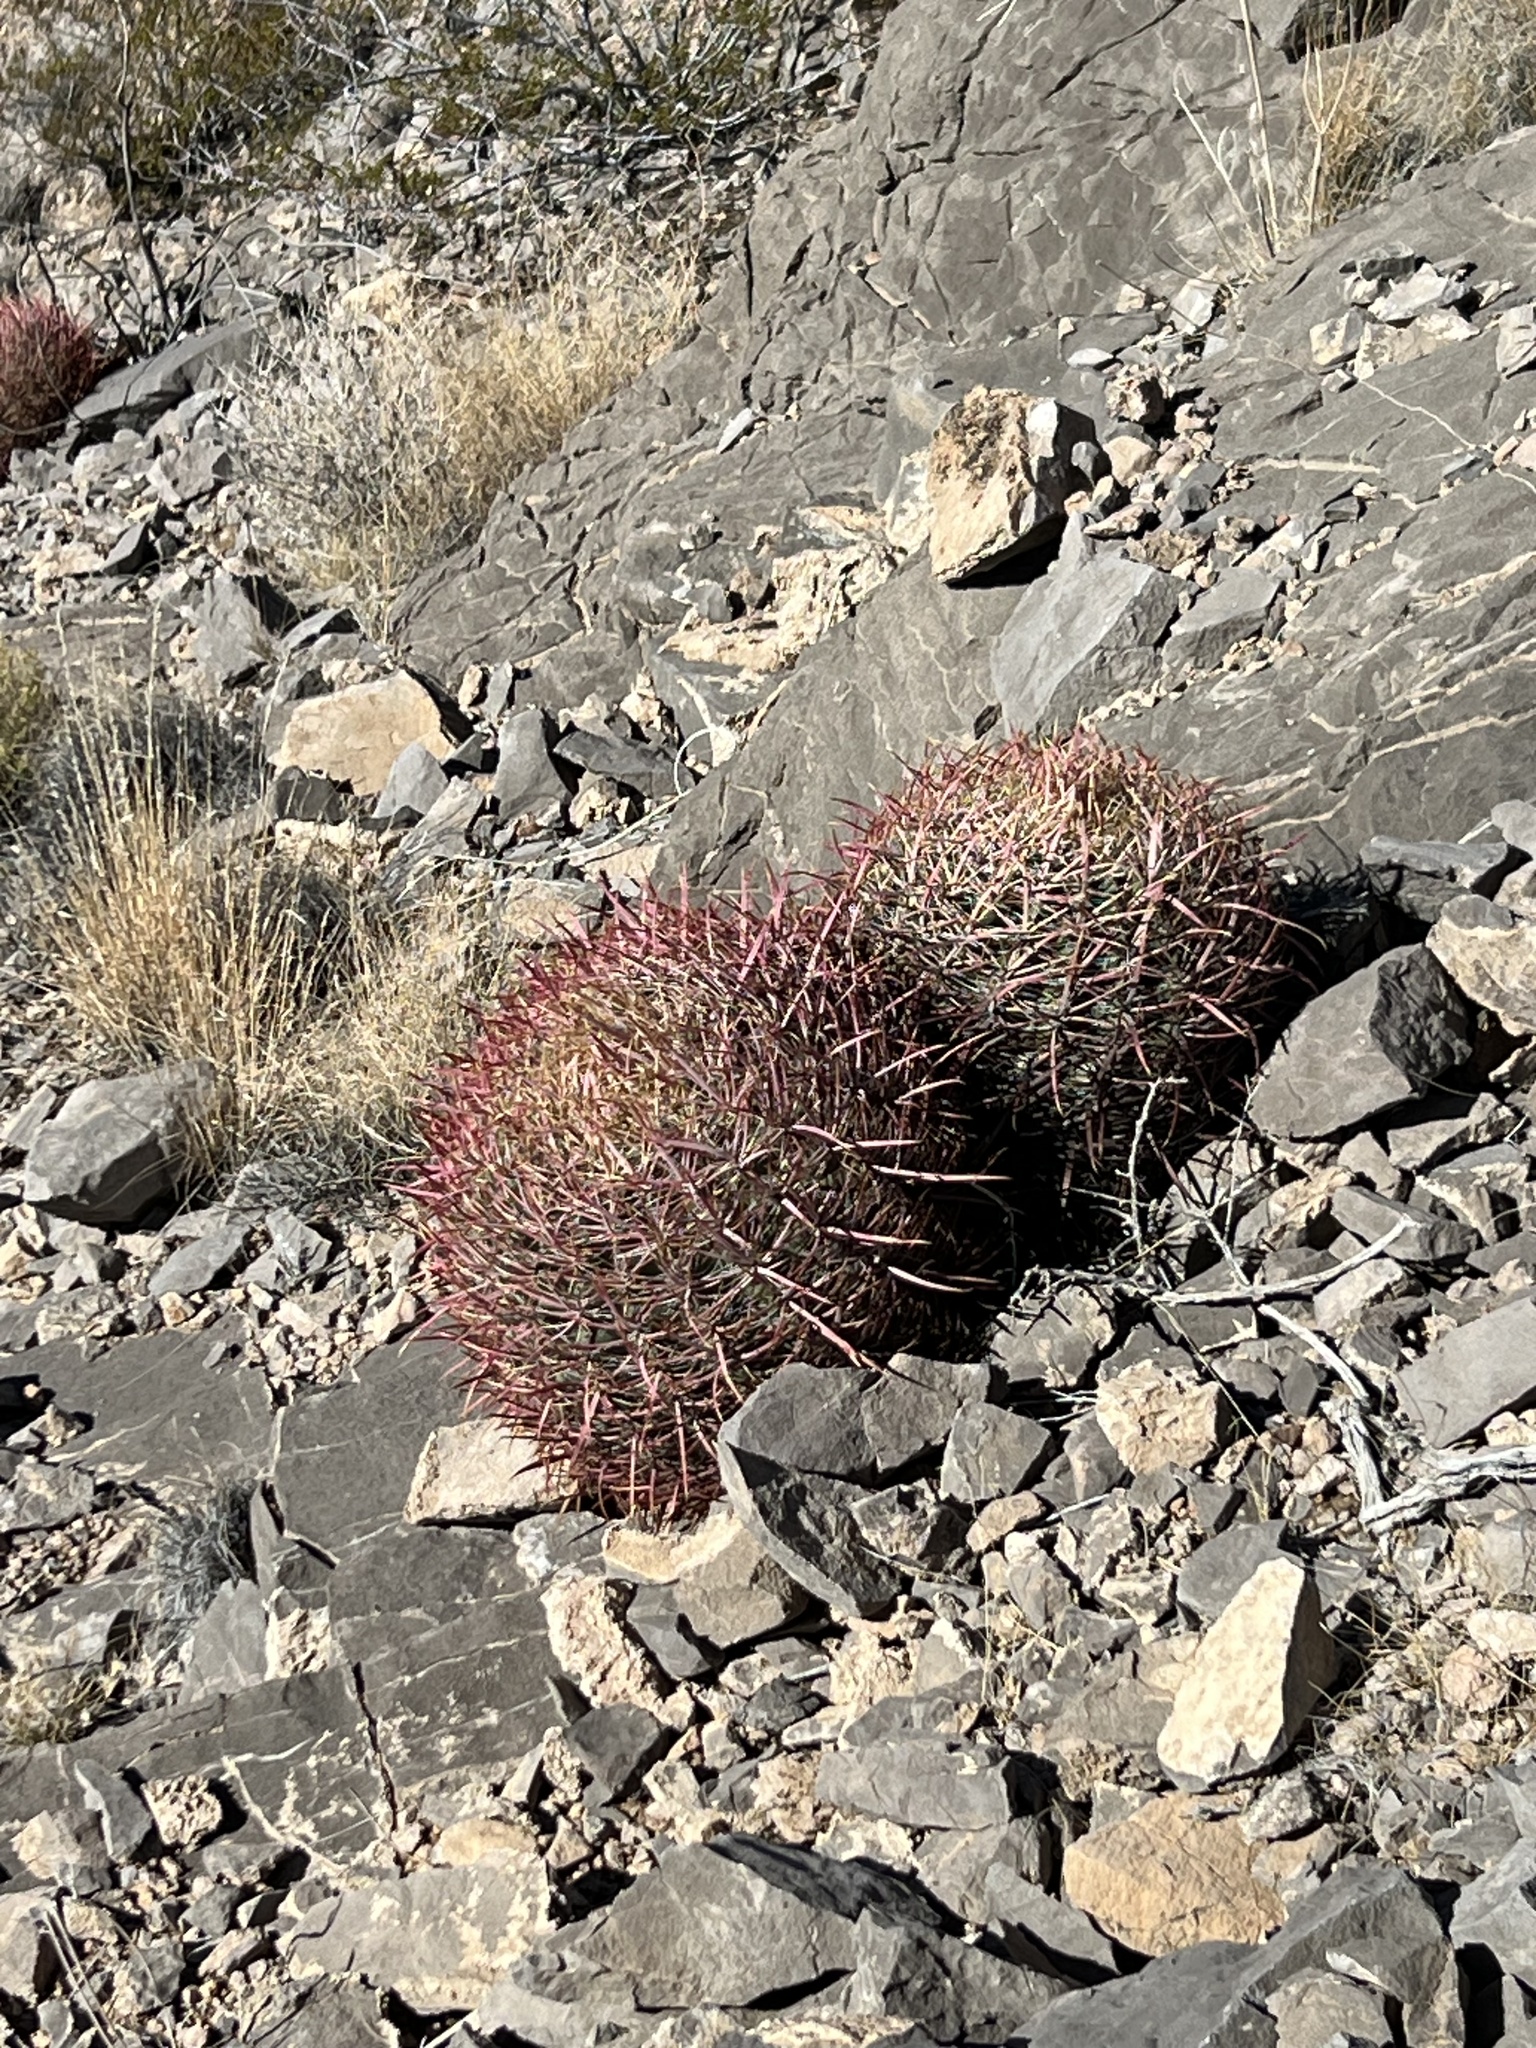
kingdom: Plantae
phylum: Tracheophyta
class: Magnoliopsida
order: Caryophyllales
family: Cactaceae
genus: Ferocactus
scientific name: Ferocactus cylindraceus
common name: California barrel cactus
